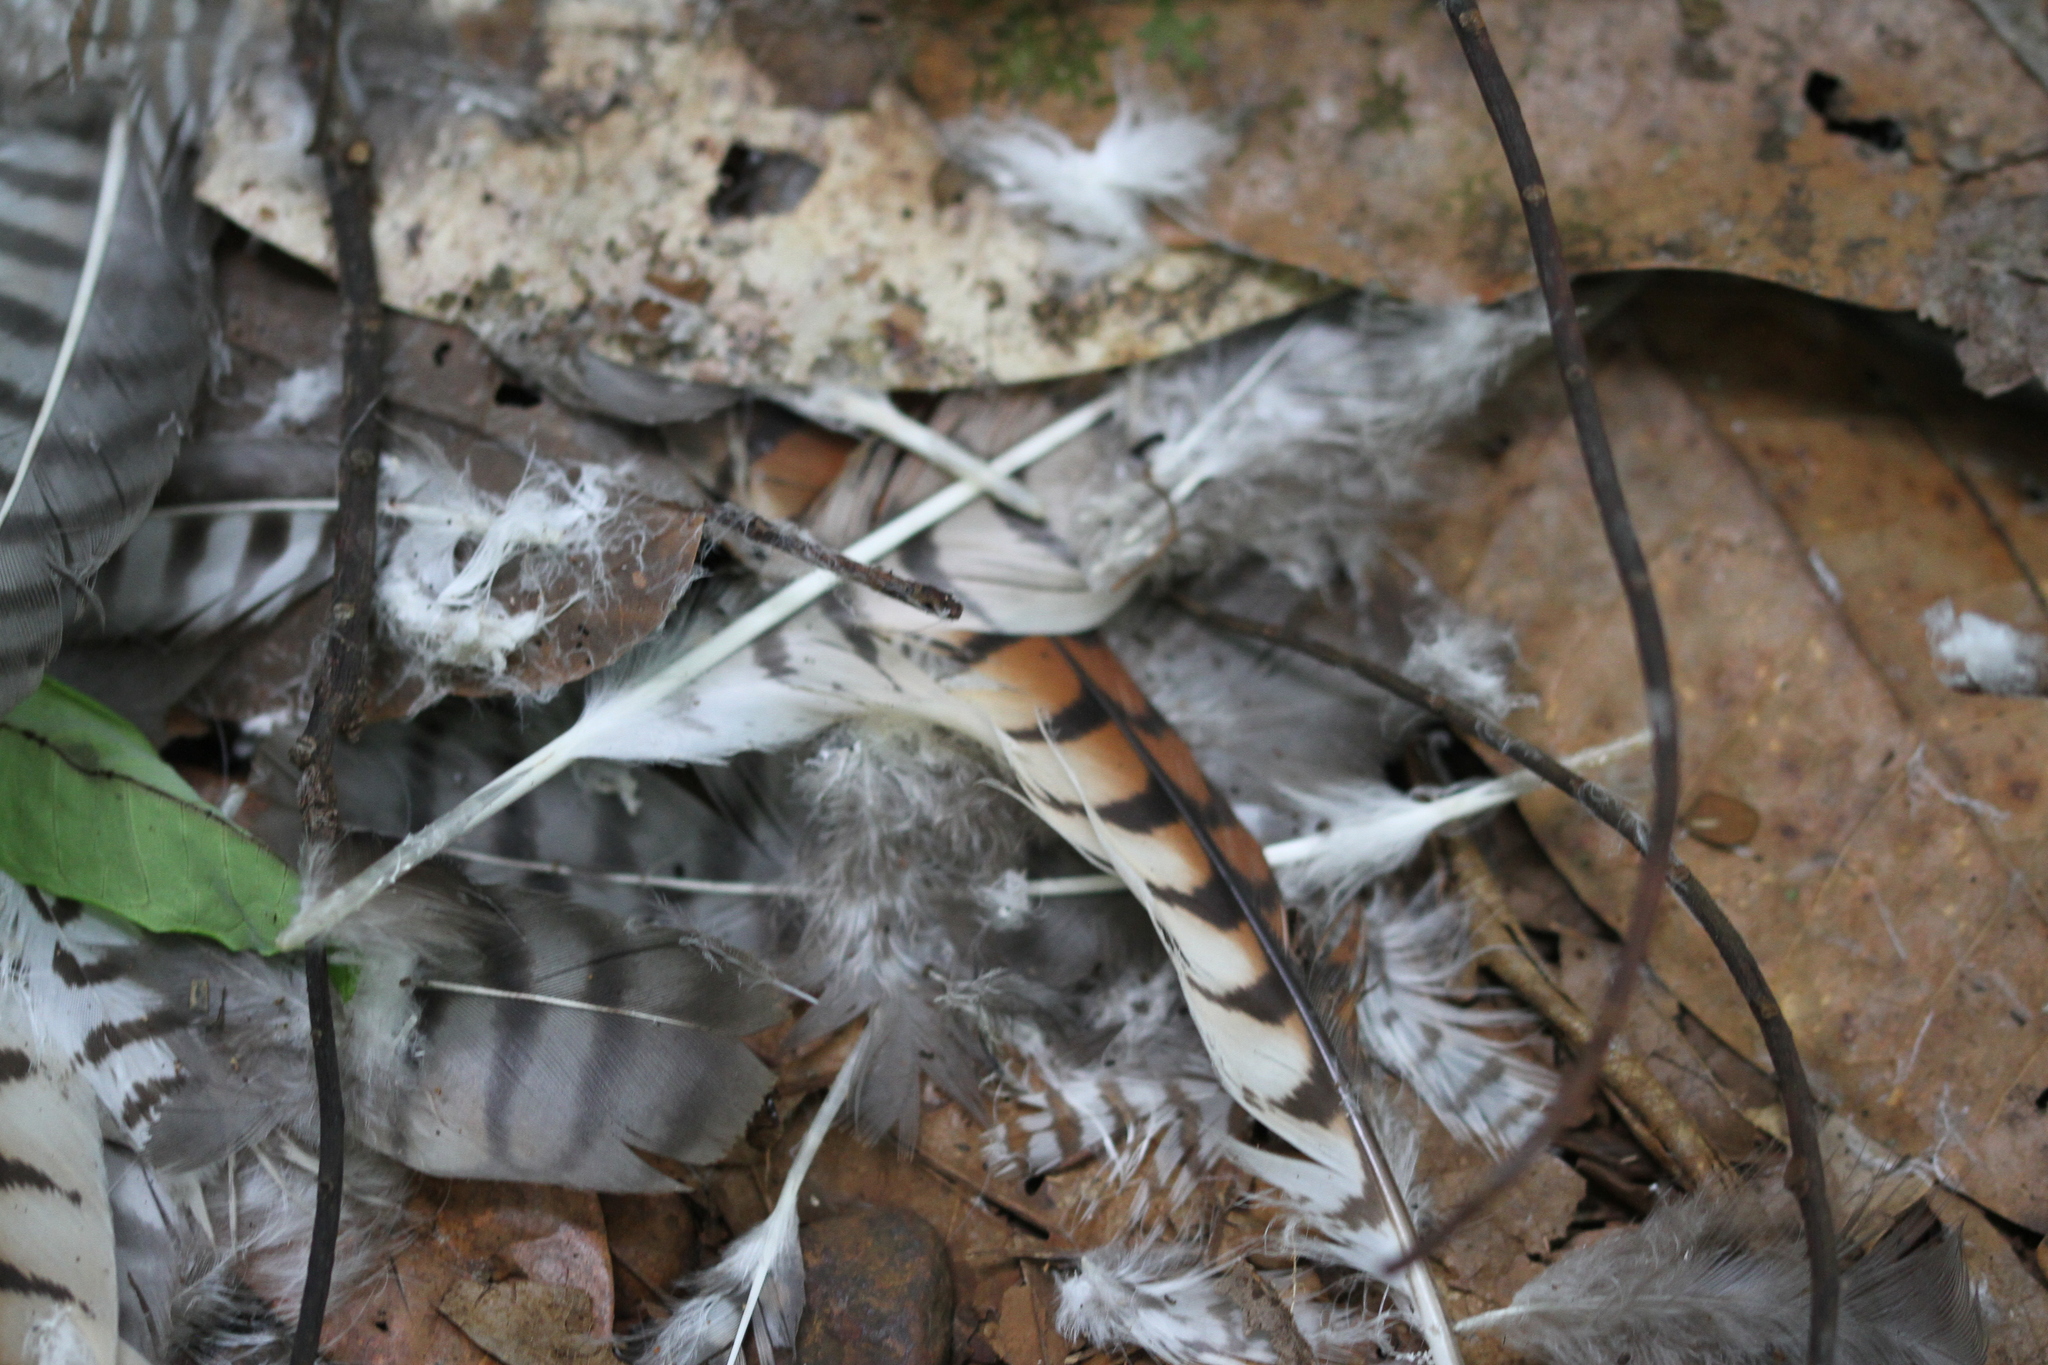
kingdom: Animalia
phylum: Chordata
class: Aves
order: Accipitriformes
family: Accipitridae
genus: Rupornis
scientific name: Rupornis magnirostris
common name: Roadside hawk
